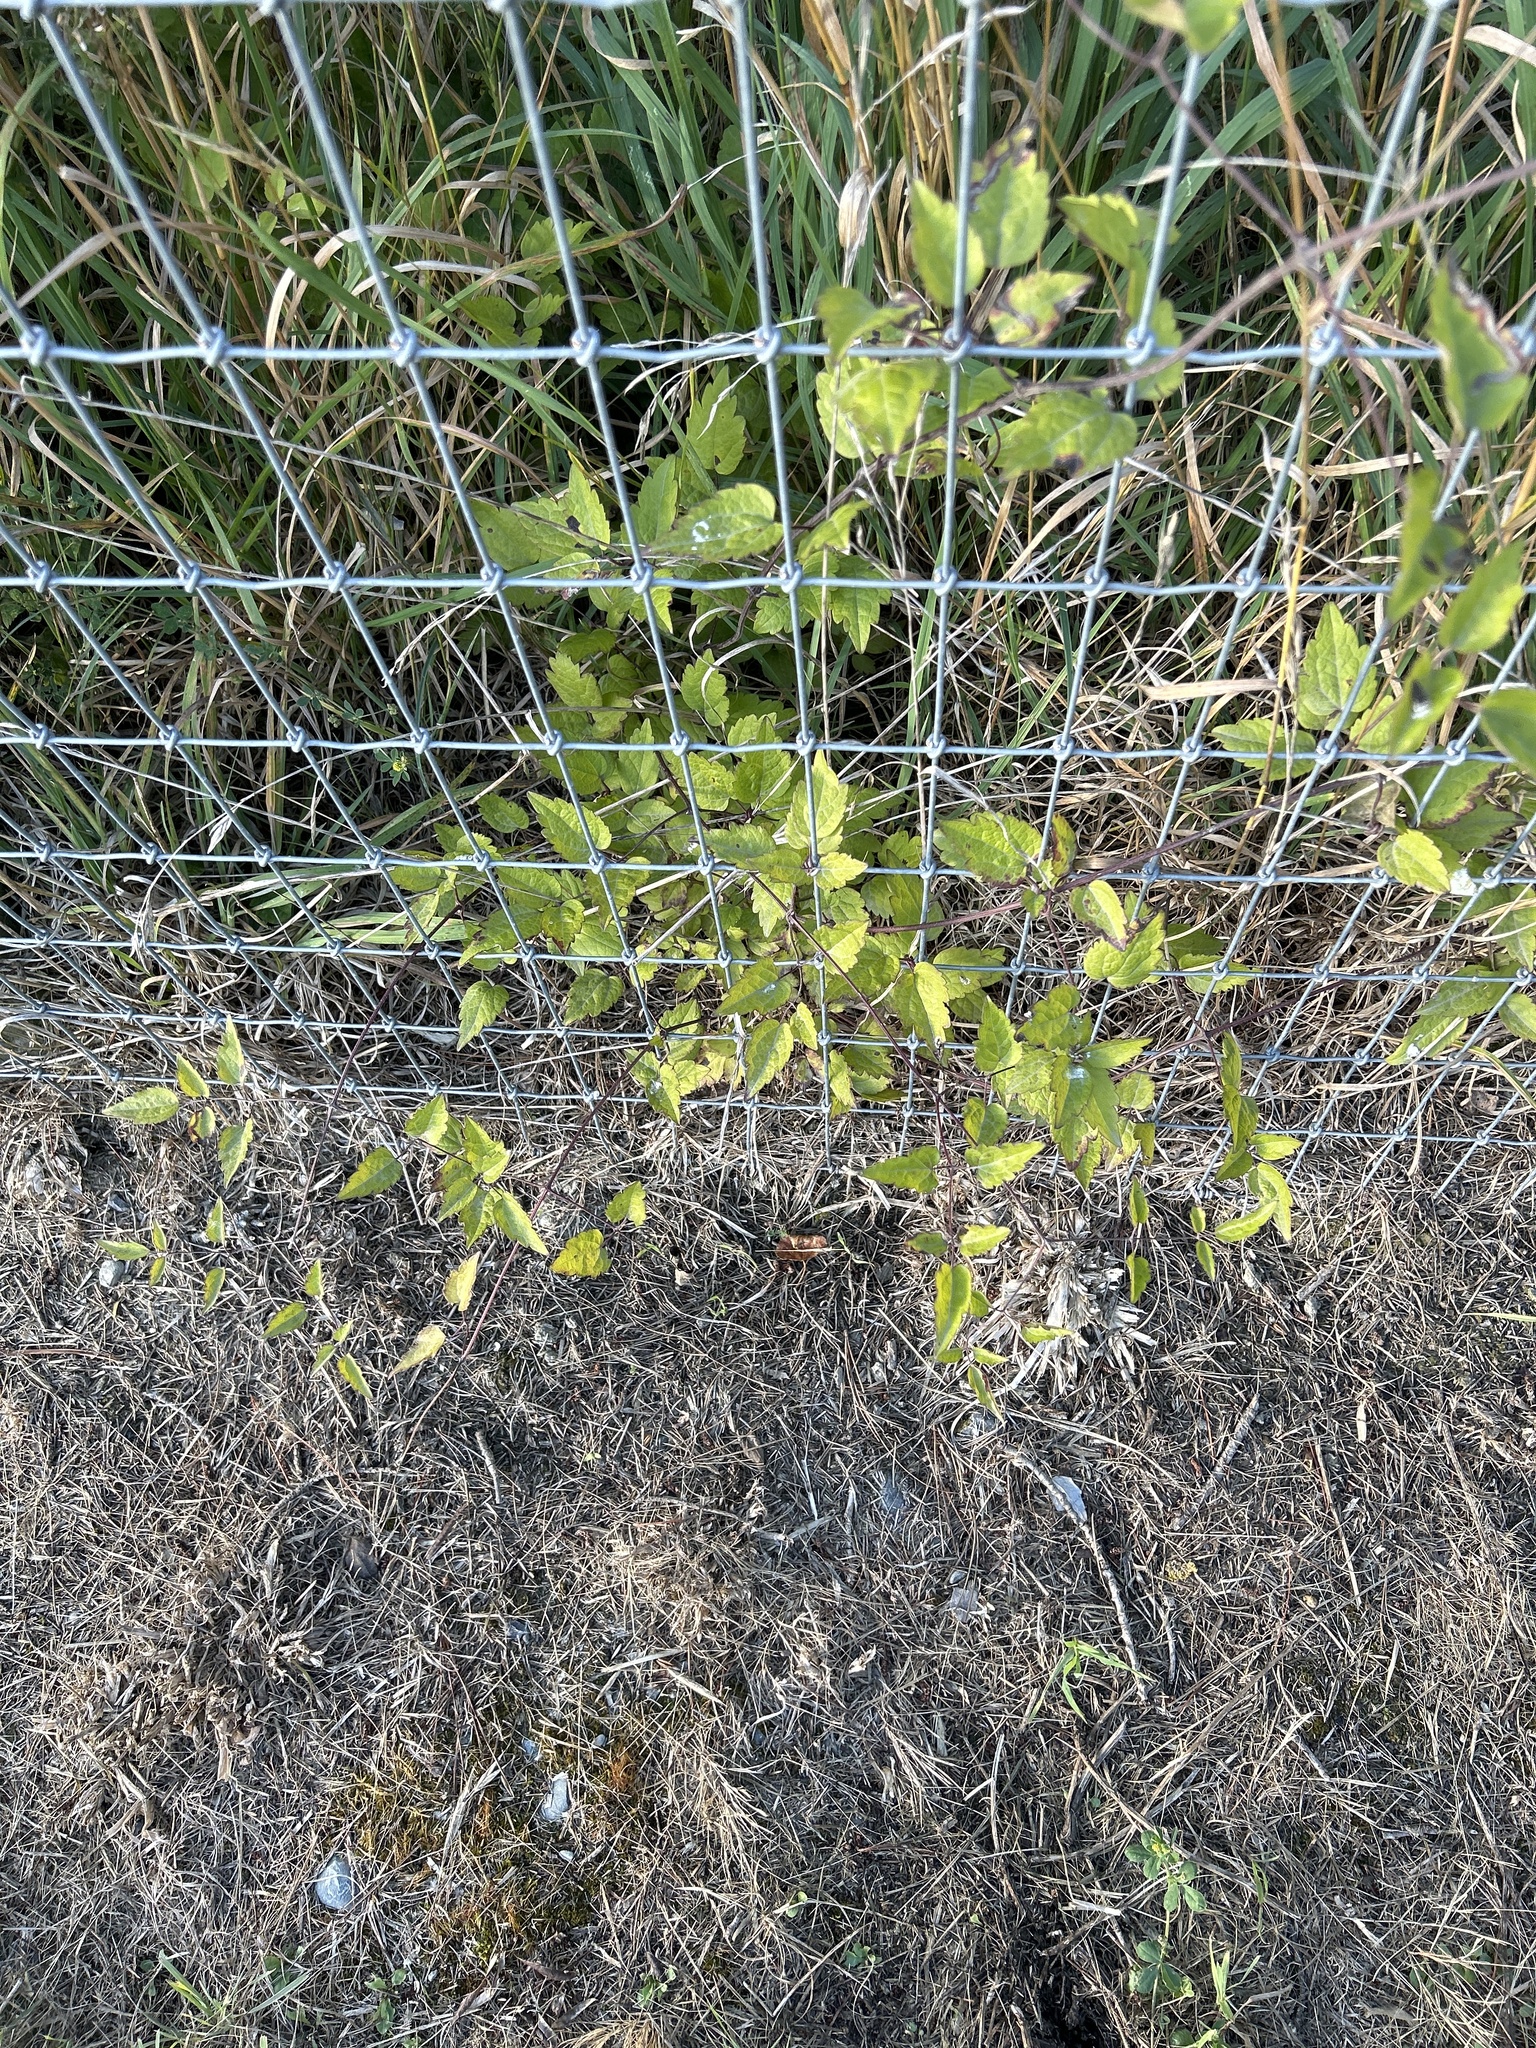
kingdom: Plantae
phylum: Tracheophyta
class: Magnoliopsida
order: Ranunculales
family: Ranunculaceae
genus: Clematis
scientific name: Clematis vitalba
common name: Evergreen clematis
